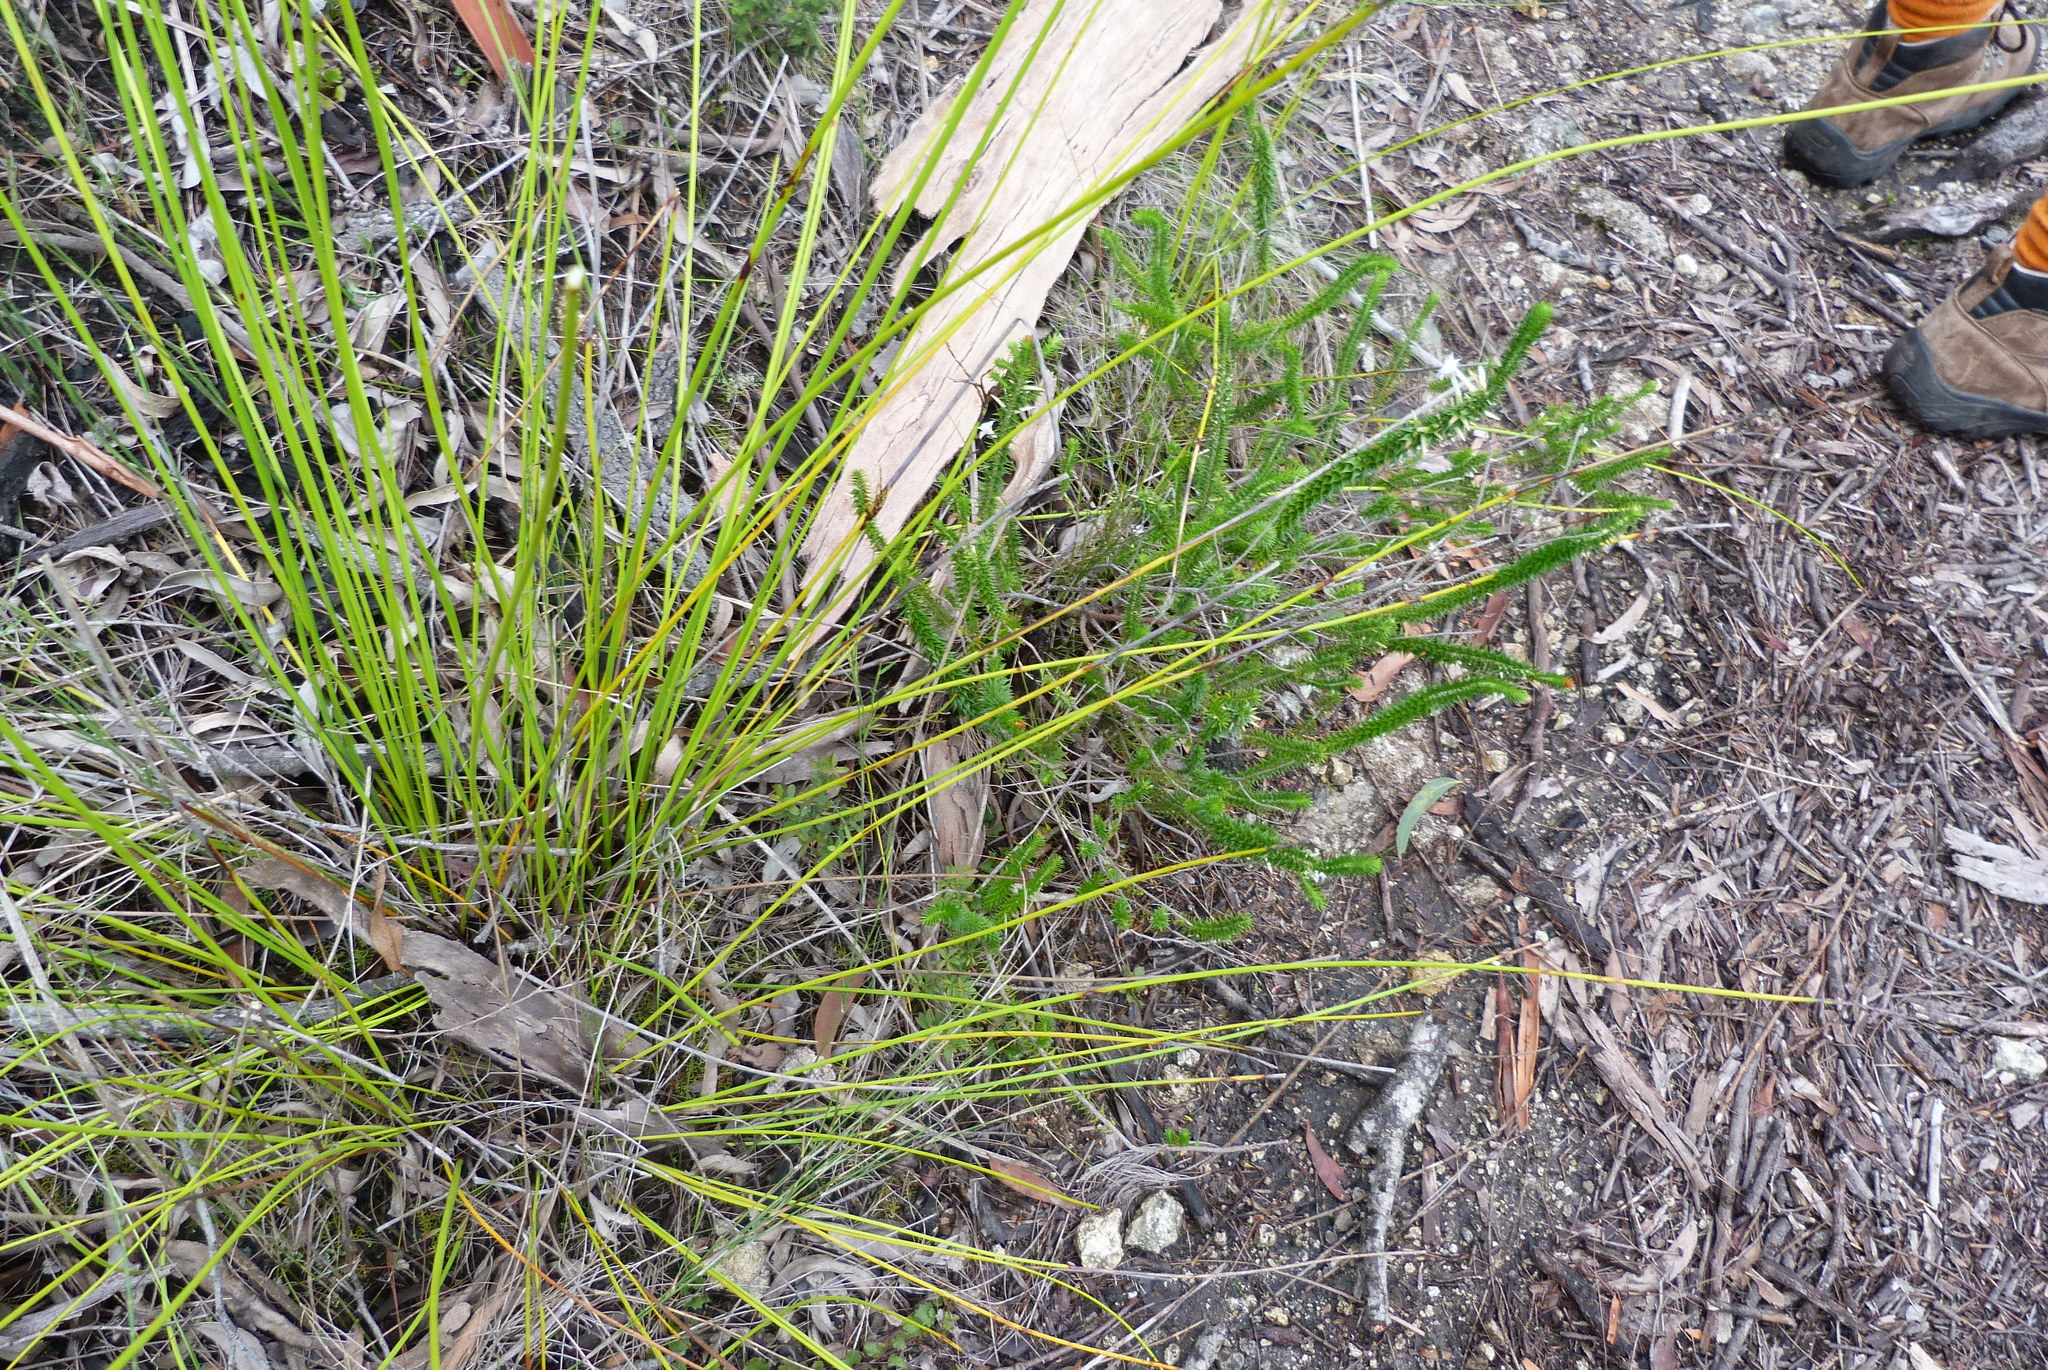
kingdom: Plantae
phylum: Tracheophyta
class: Magnoliopsida
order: Ericales
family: Ericaceae
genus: Woollsia
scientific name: Woollsia pungens
